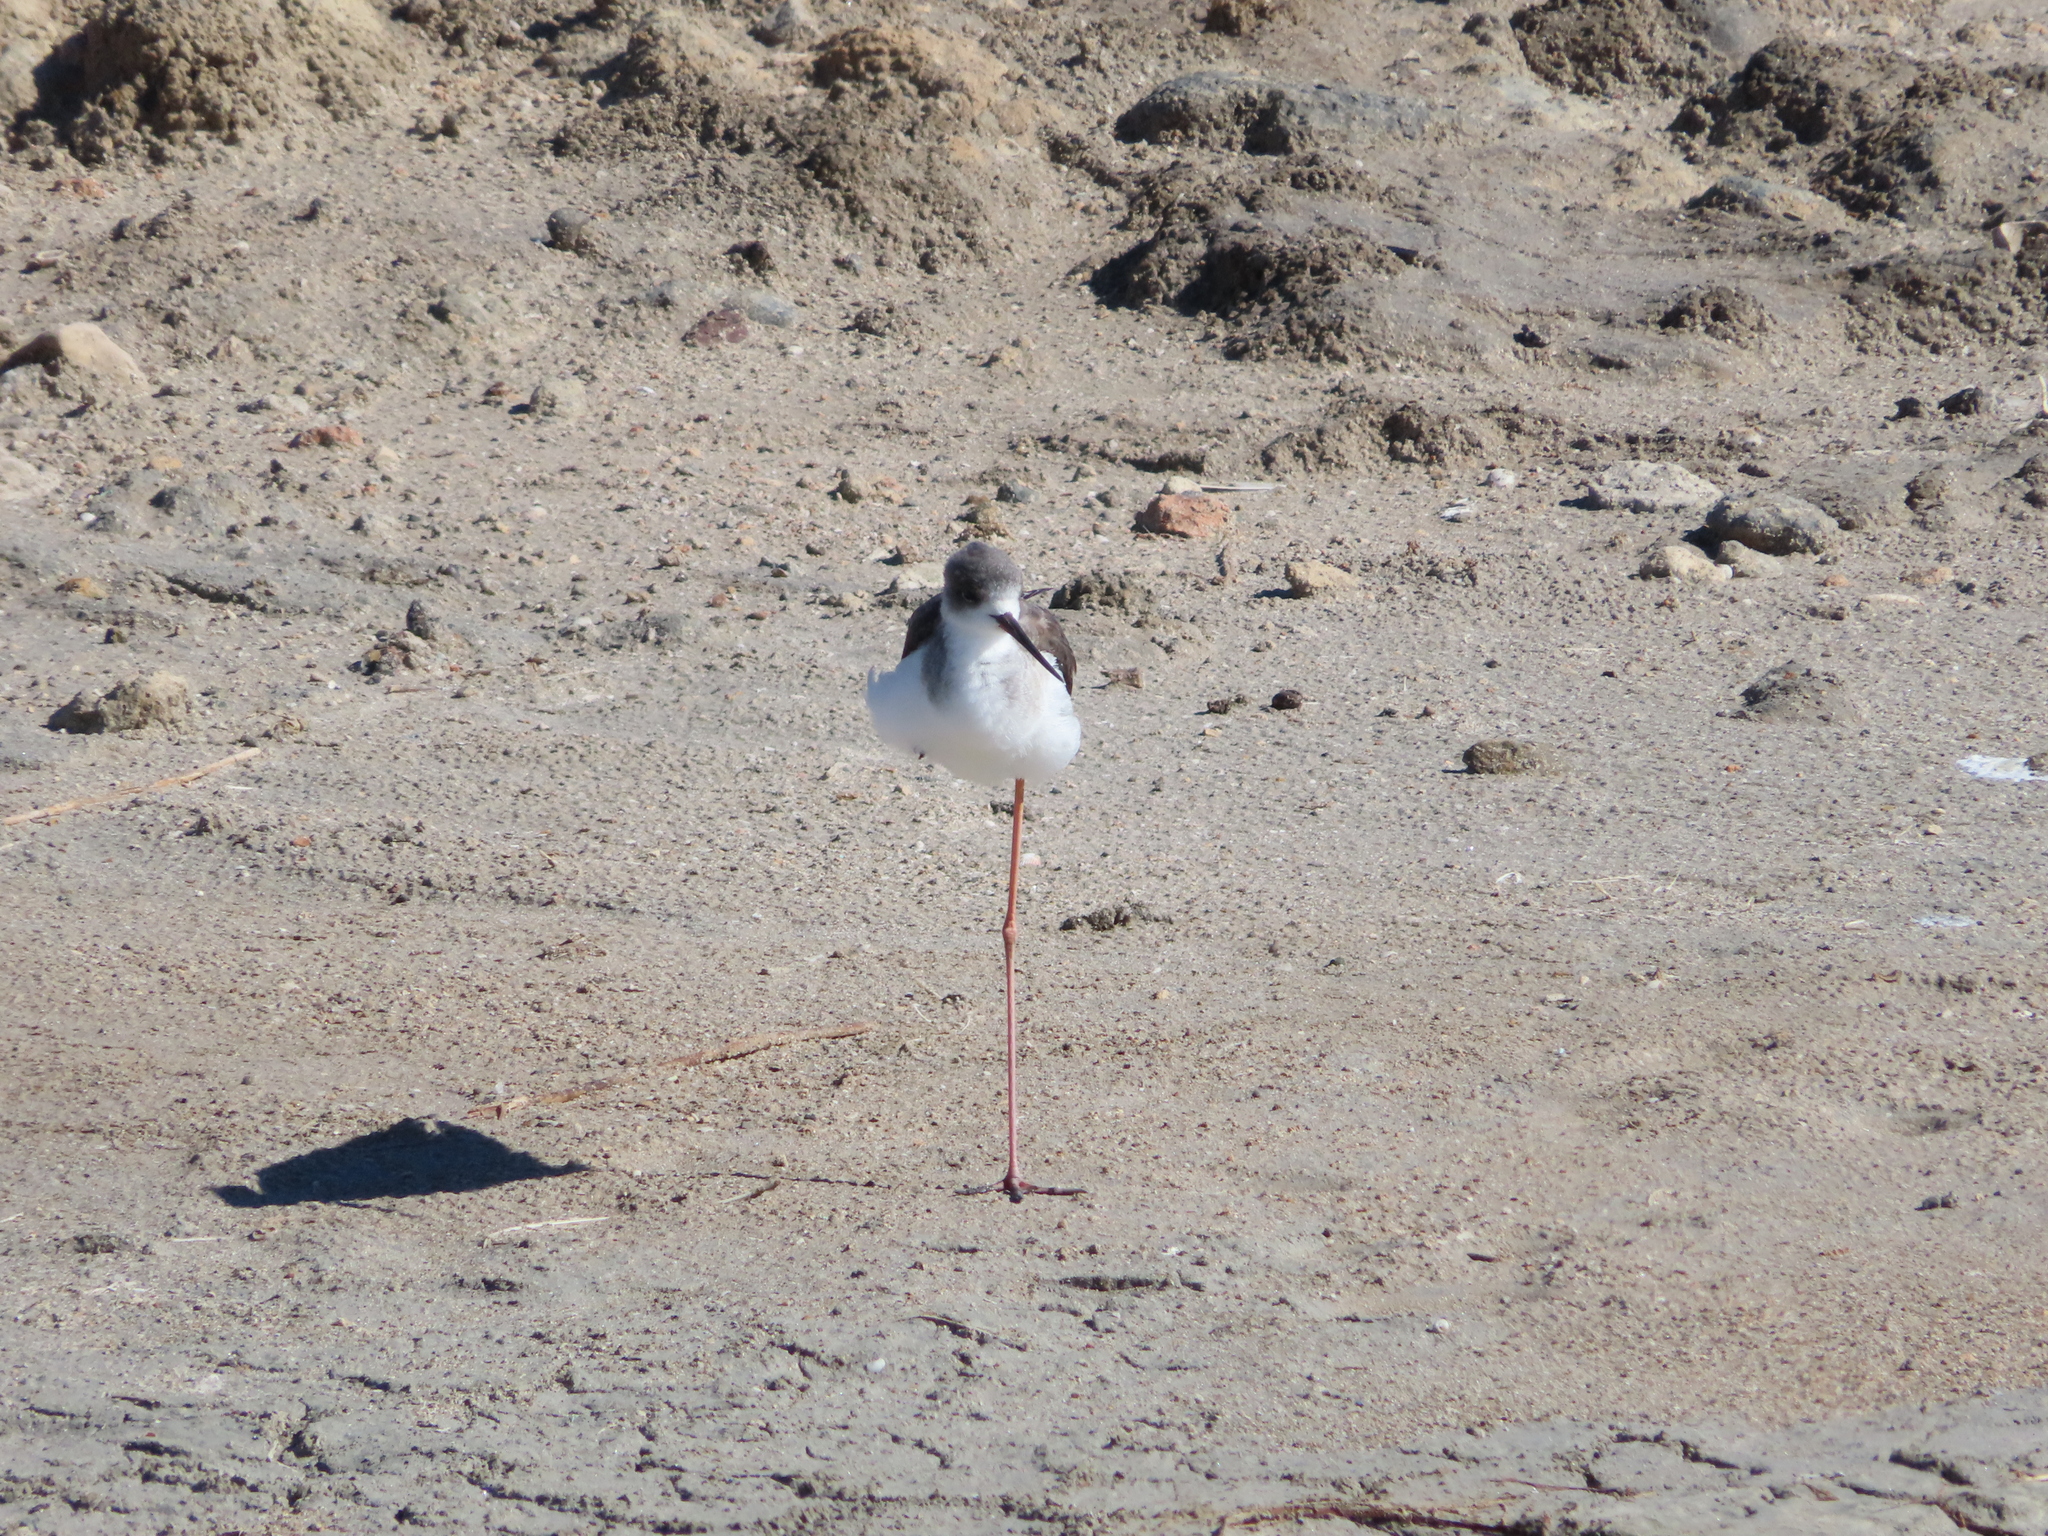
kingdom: Animalia
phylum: Chordata
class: Aves
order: Charadriiformes
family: Recurvirostridae
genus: Himantopus
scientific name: Himantopus himantopus
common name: Black-winged stilt
